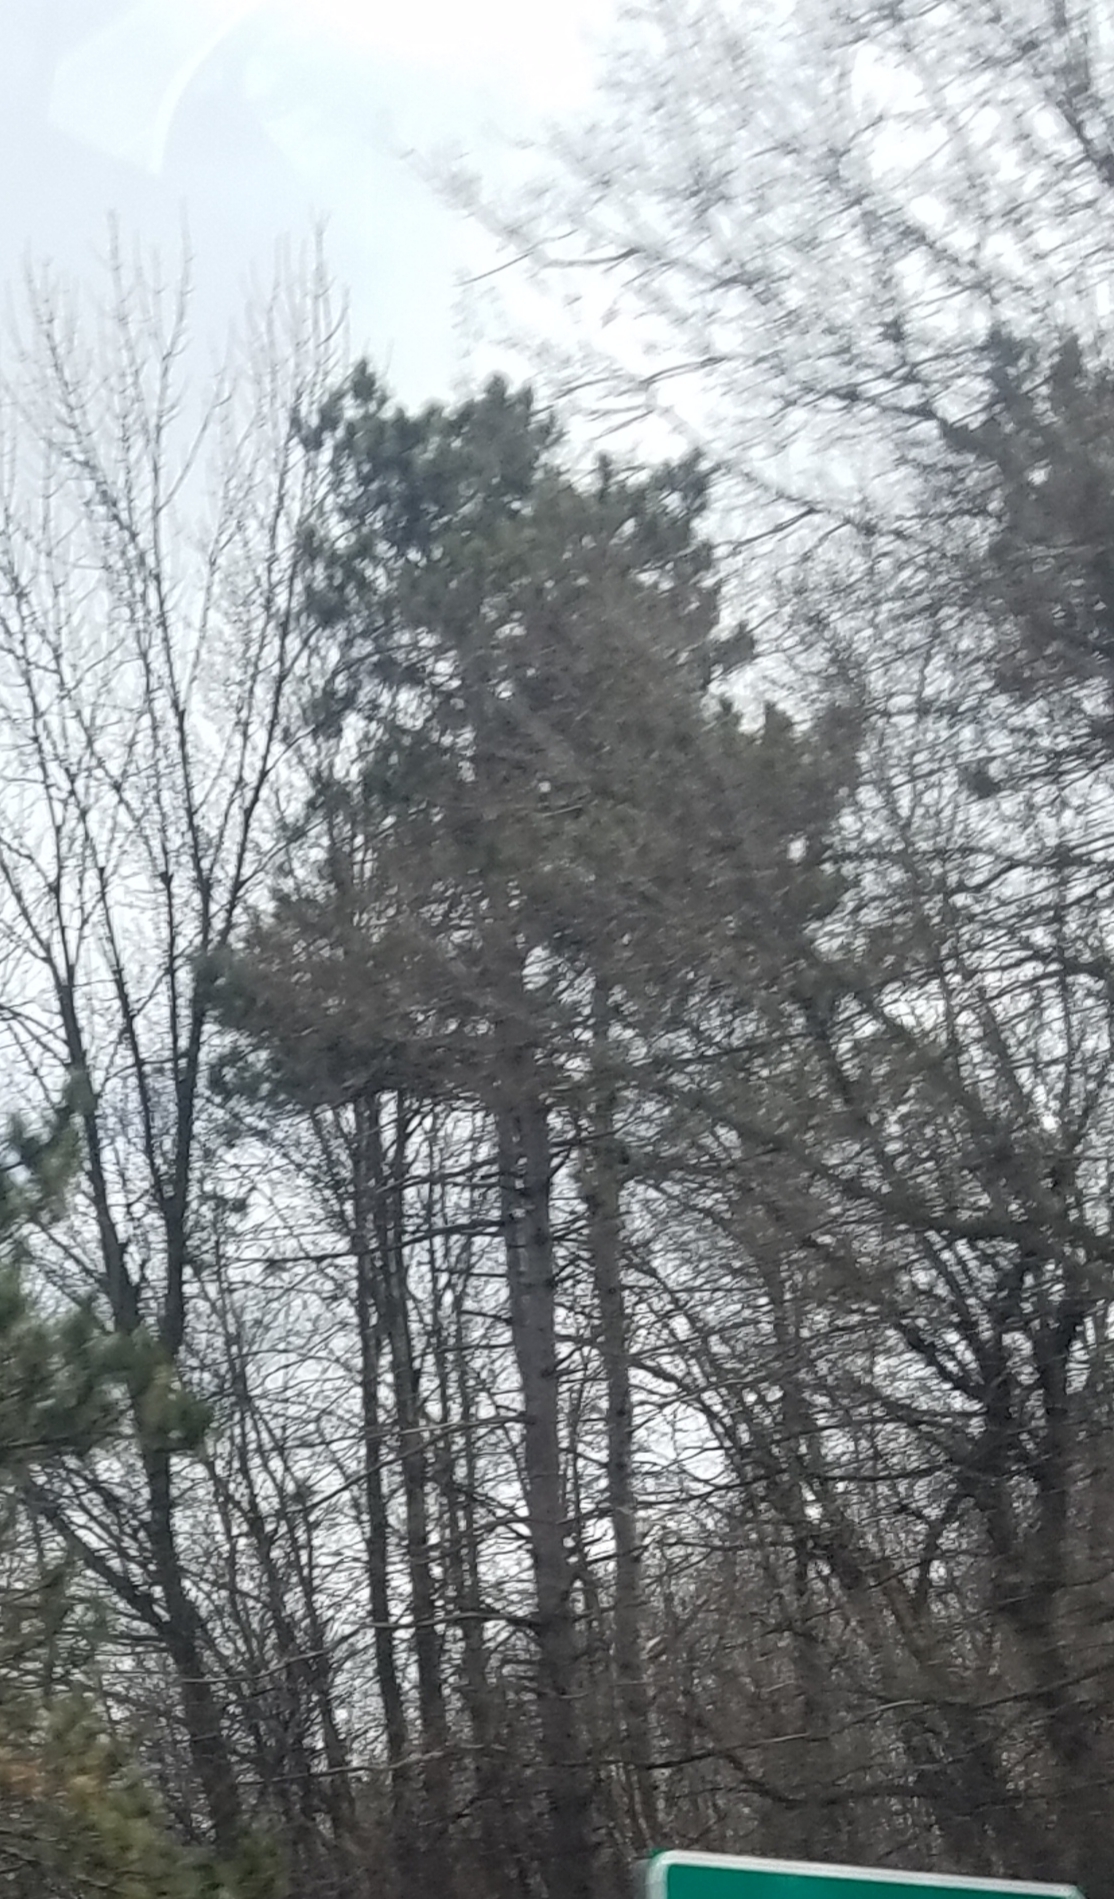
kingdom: Plantae
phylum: Tracheophyta
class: Pinopsida
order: Pinales
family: Pinaceae
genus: Pinus
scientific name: Pinus resinosa
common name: Norway pine
